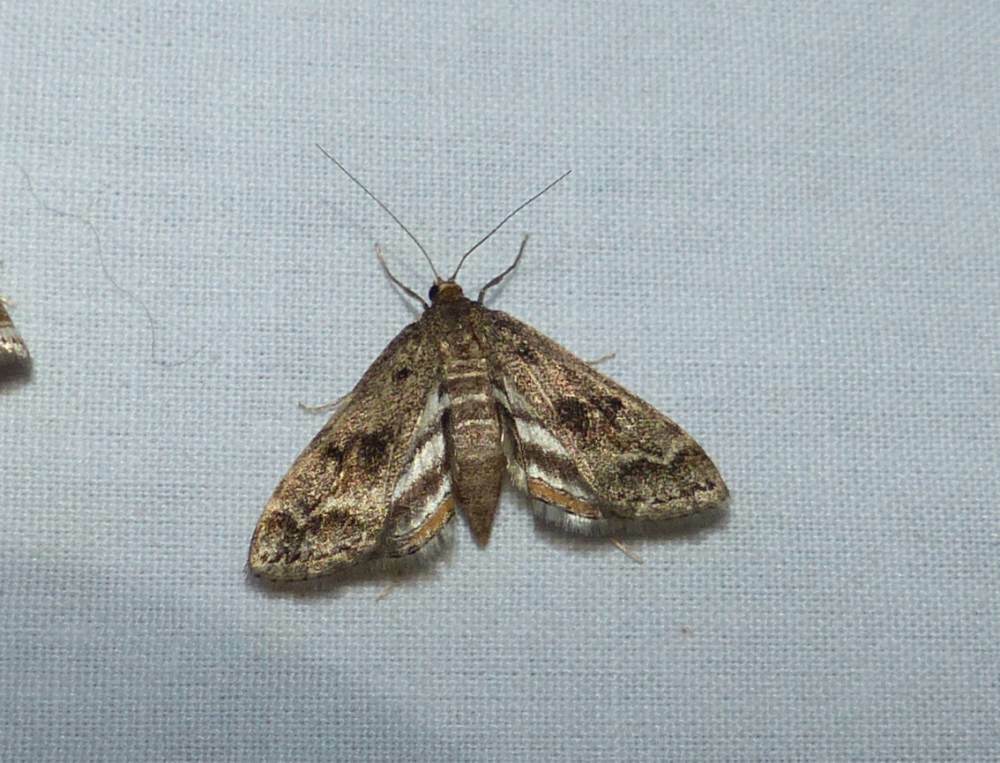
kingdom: Animalia
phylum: Arthropoda
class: Insecta
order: Lepidoptera
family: Crambidae
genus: Parapoynx
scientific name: Parapoynx obscuralis
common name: American china-mark
